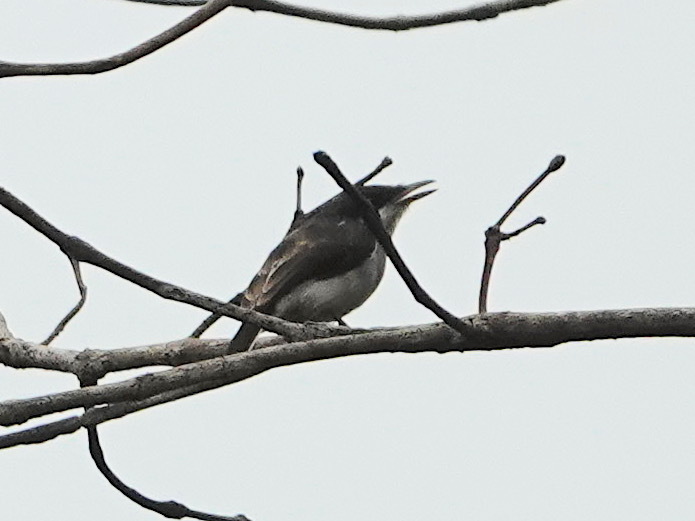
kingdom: Animalia
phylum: Chordata
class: Aves
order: Passeriformes
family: Tephrodornithidae
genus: Hemipus
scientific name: Hemipus hirundinaceus
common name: Black-winged flycatcher-shrike
